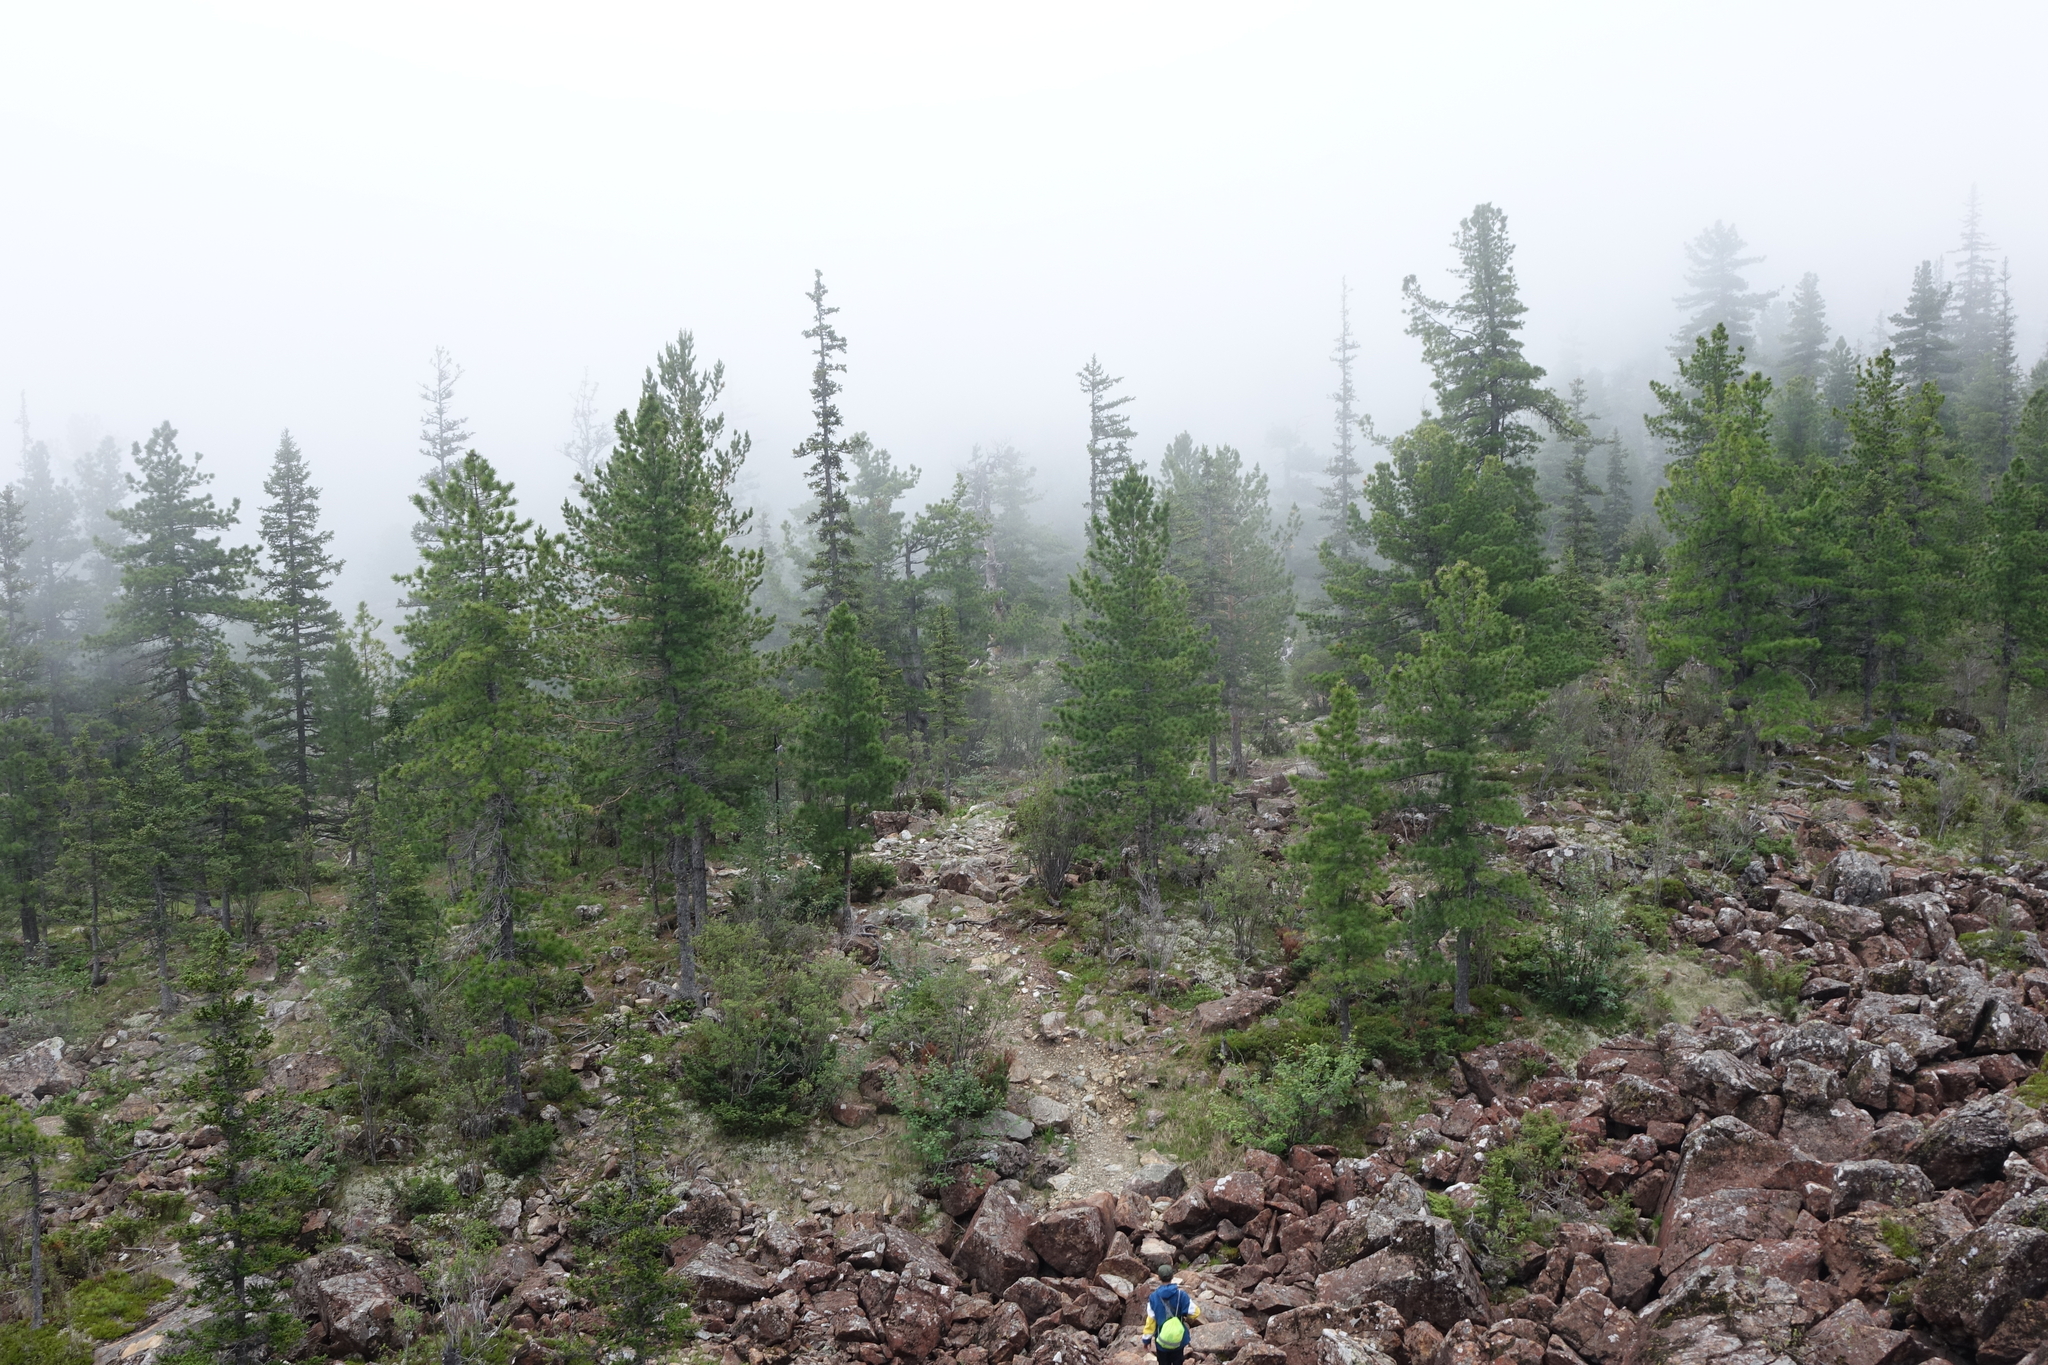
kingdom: Plantae
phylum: Tracheophyta
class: Pinopsida
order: Pinales
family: Pinaceae
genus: Pinus
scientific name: Pinus sibirica
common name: Siberian pine
